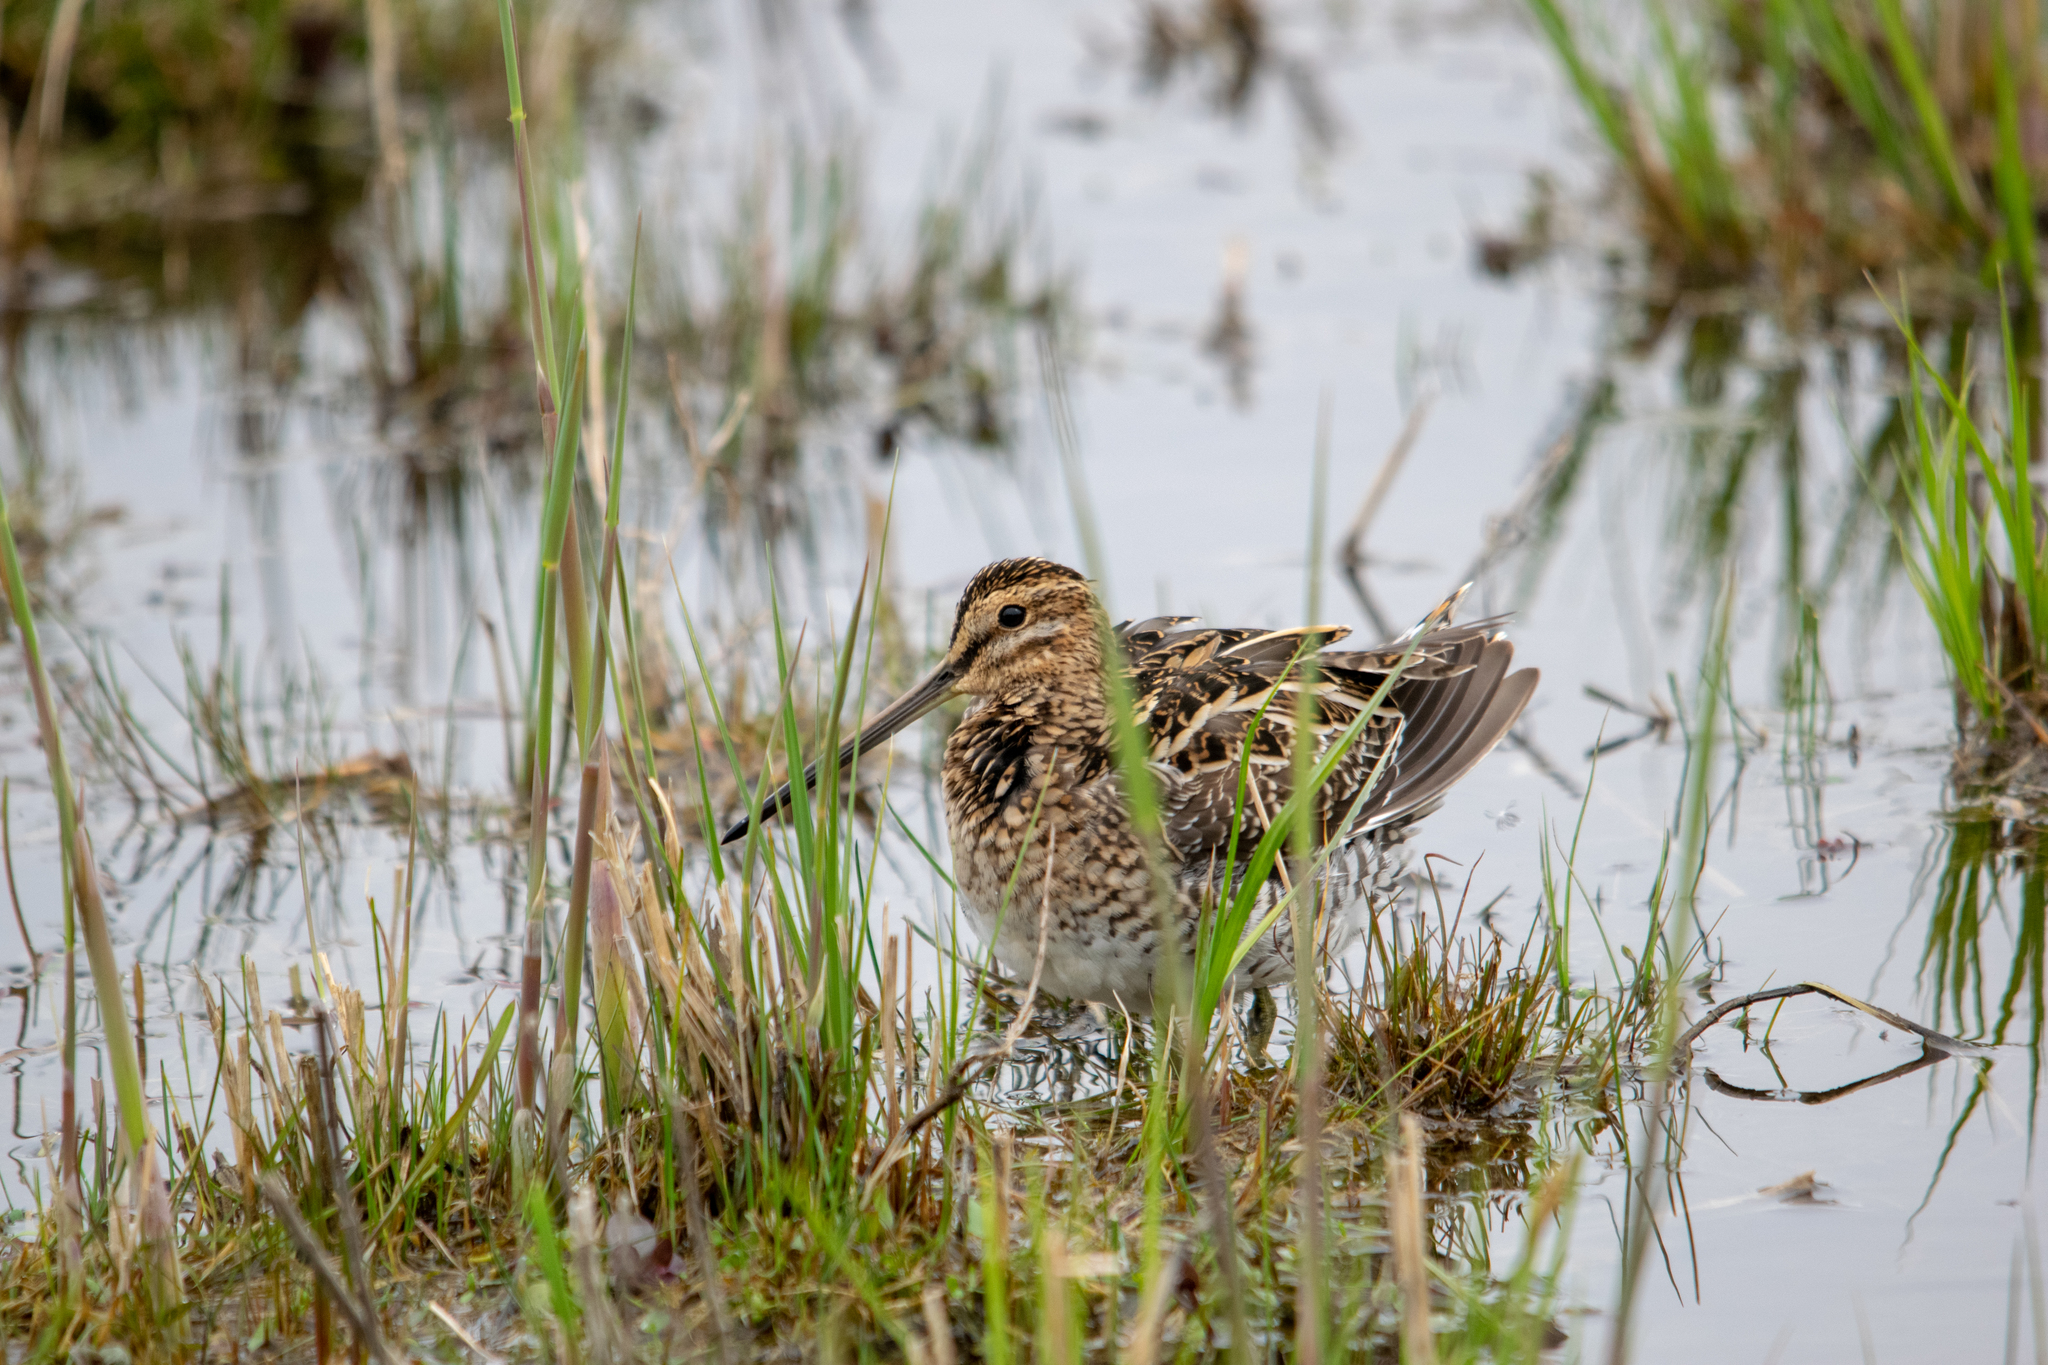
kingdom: Animalia
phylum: Chordata
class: Aves
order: Charadriiformes
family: Scolopacidae
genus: Gallinago
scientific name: Gallinago gallinago
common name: Common snipe
